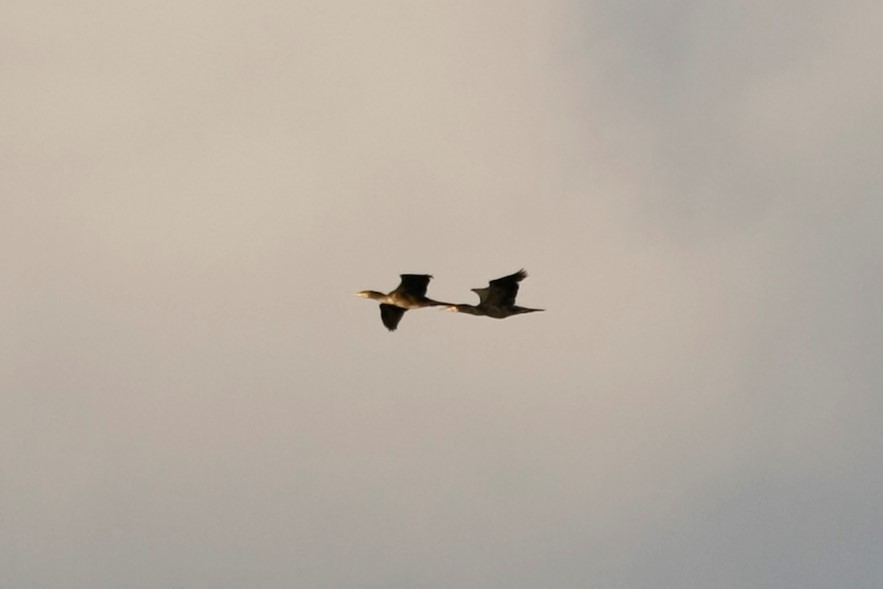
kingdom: Animalia
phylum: Chordata
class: Aves
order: Suliformes
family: Phalacrocoracidae
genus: Phalacrocorax
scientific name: Phalacrocorax carbo
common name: Great cormorant
